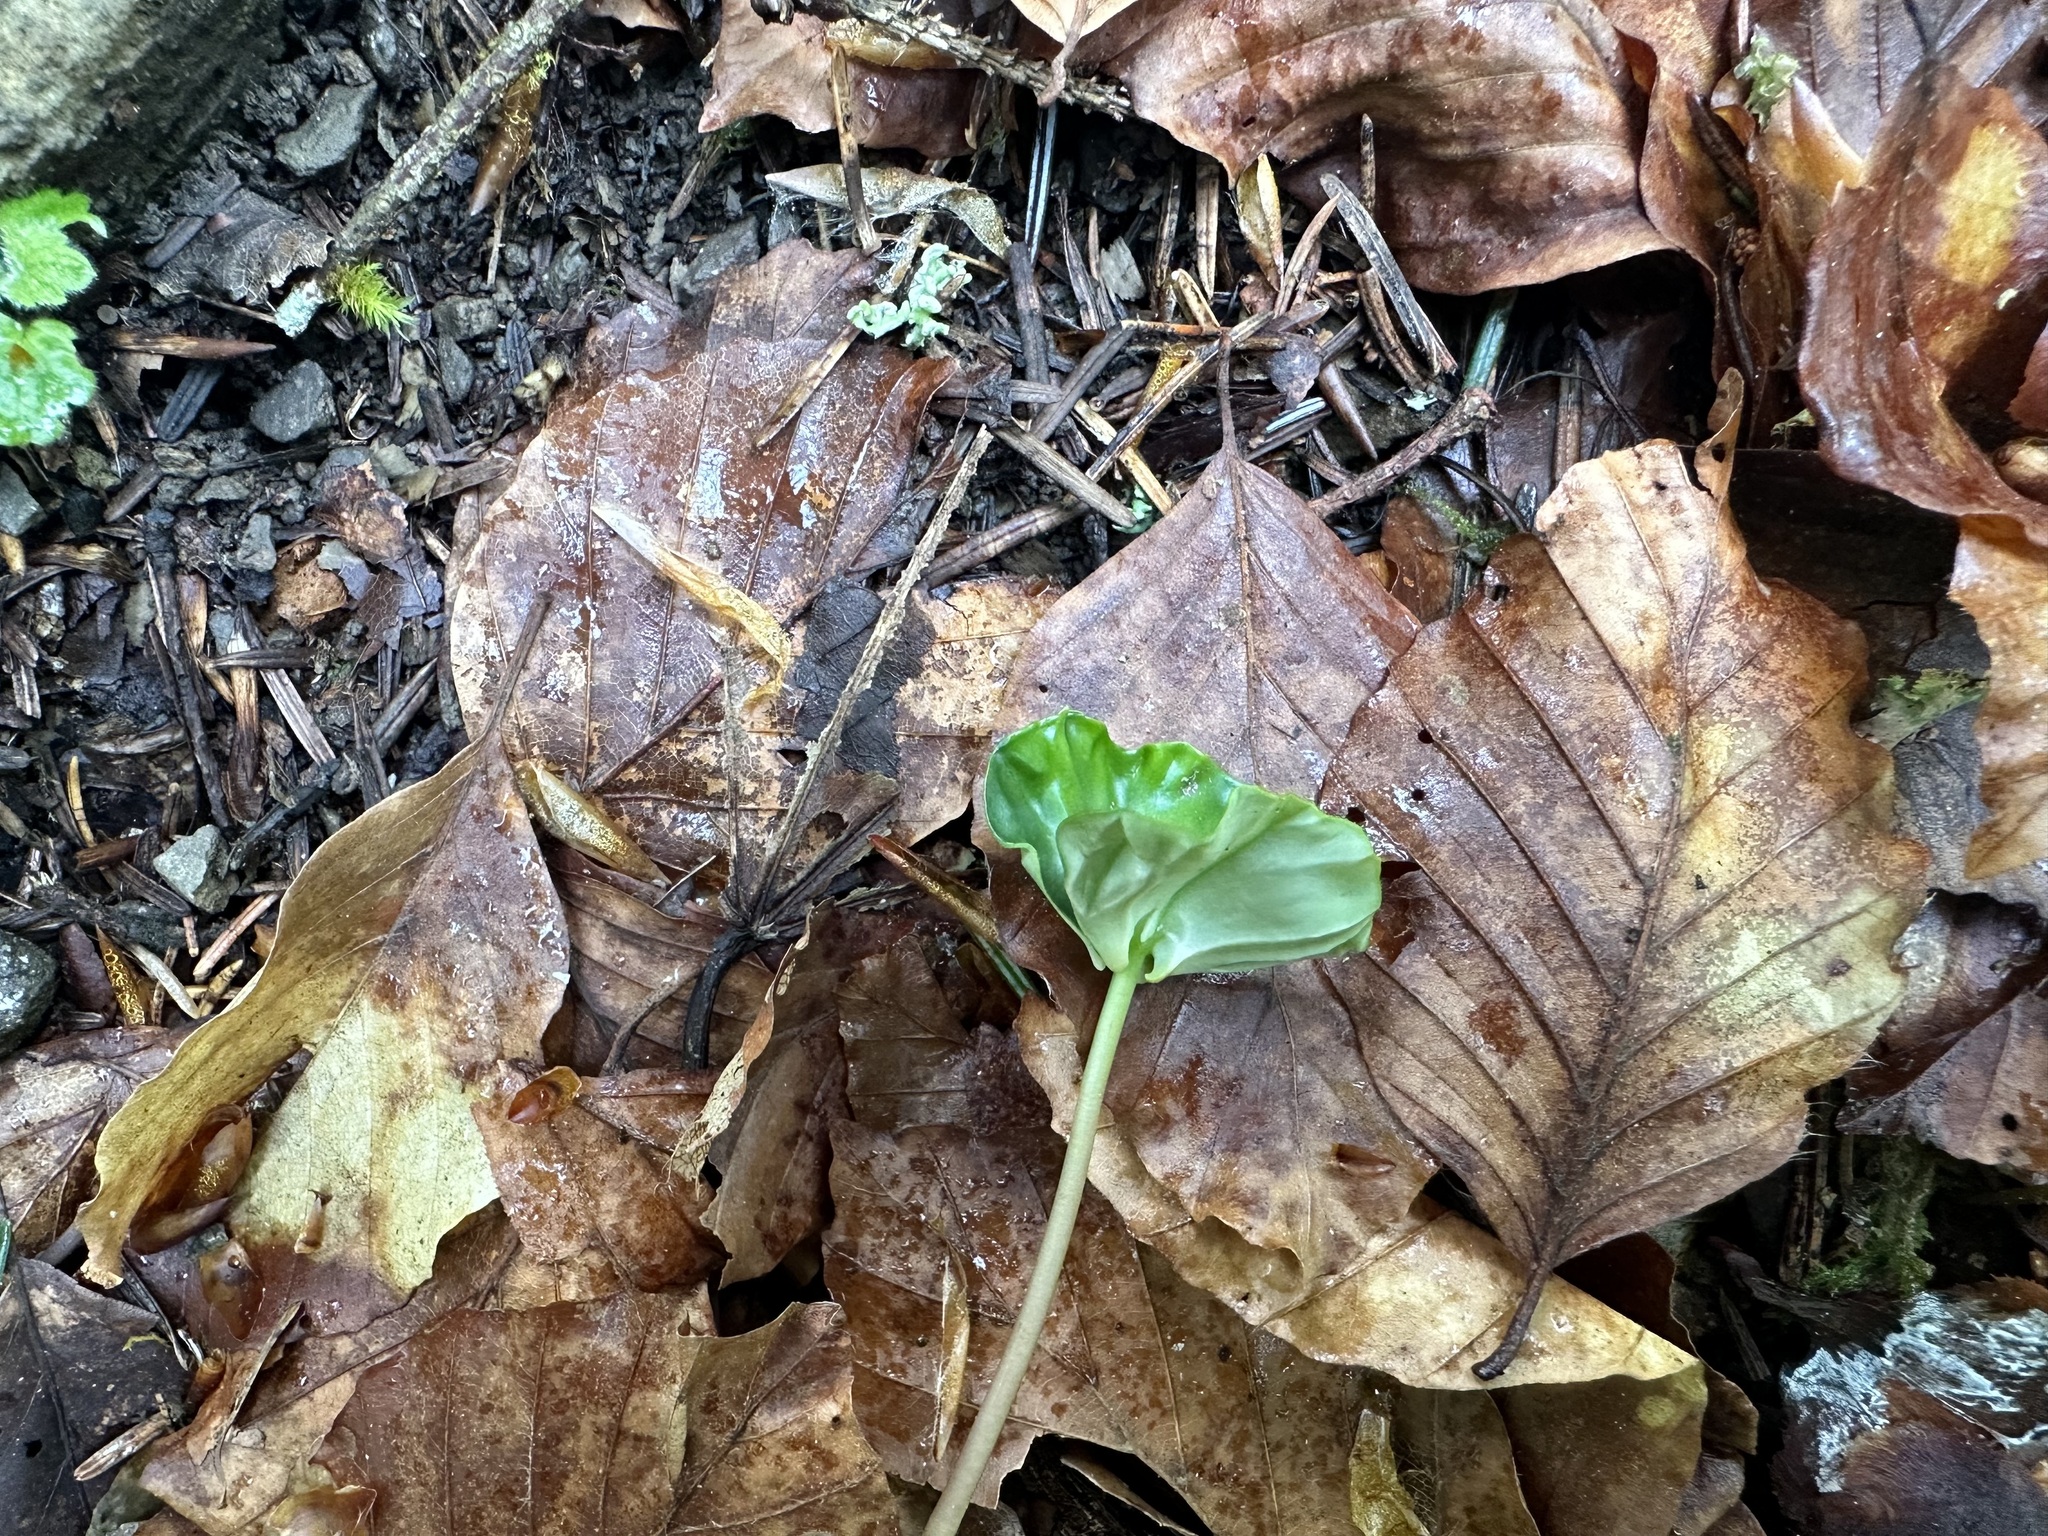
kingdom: Plantae
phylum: Tracheophyta
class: Magnoliopsida
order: Fagales
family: Fagaceae
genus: Fagus
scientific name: Fagus sylvatica
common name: Beech
